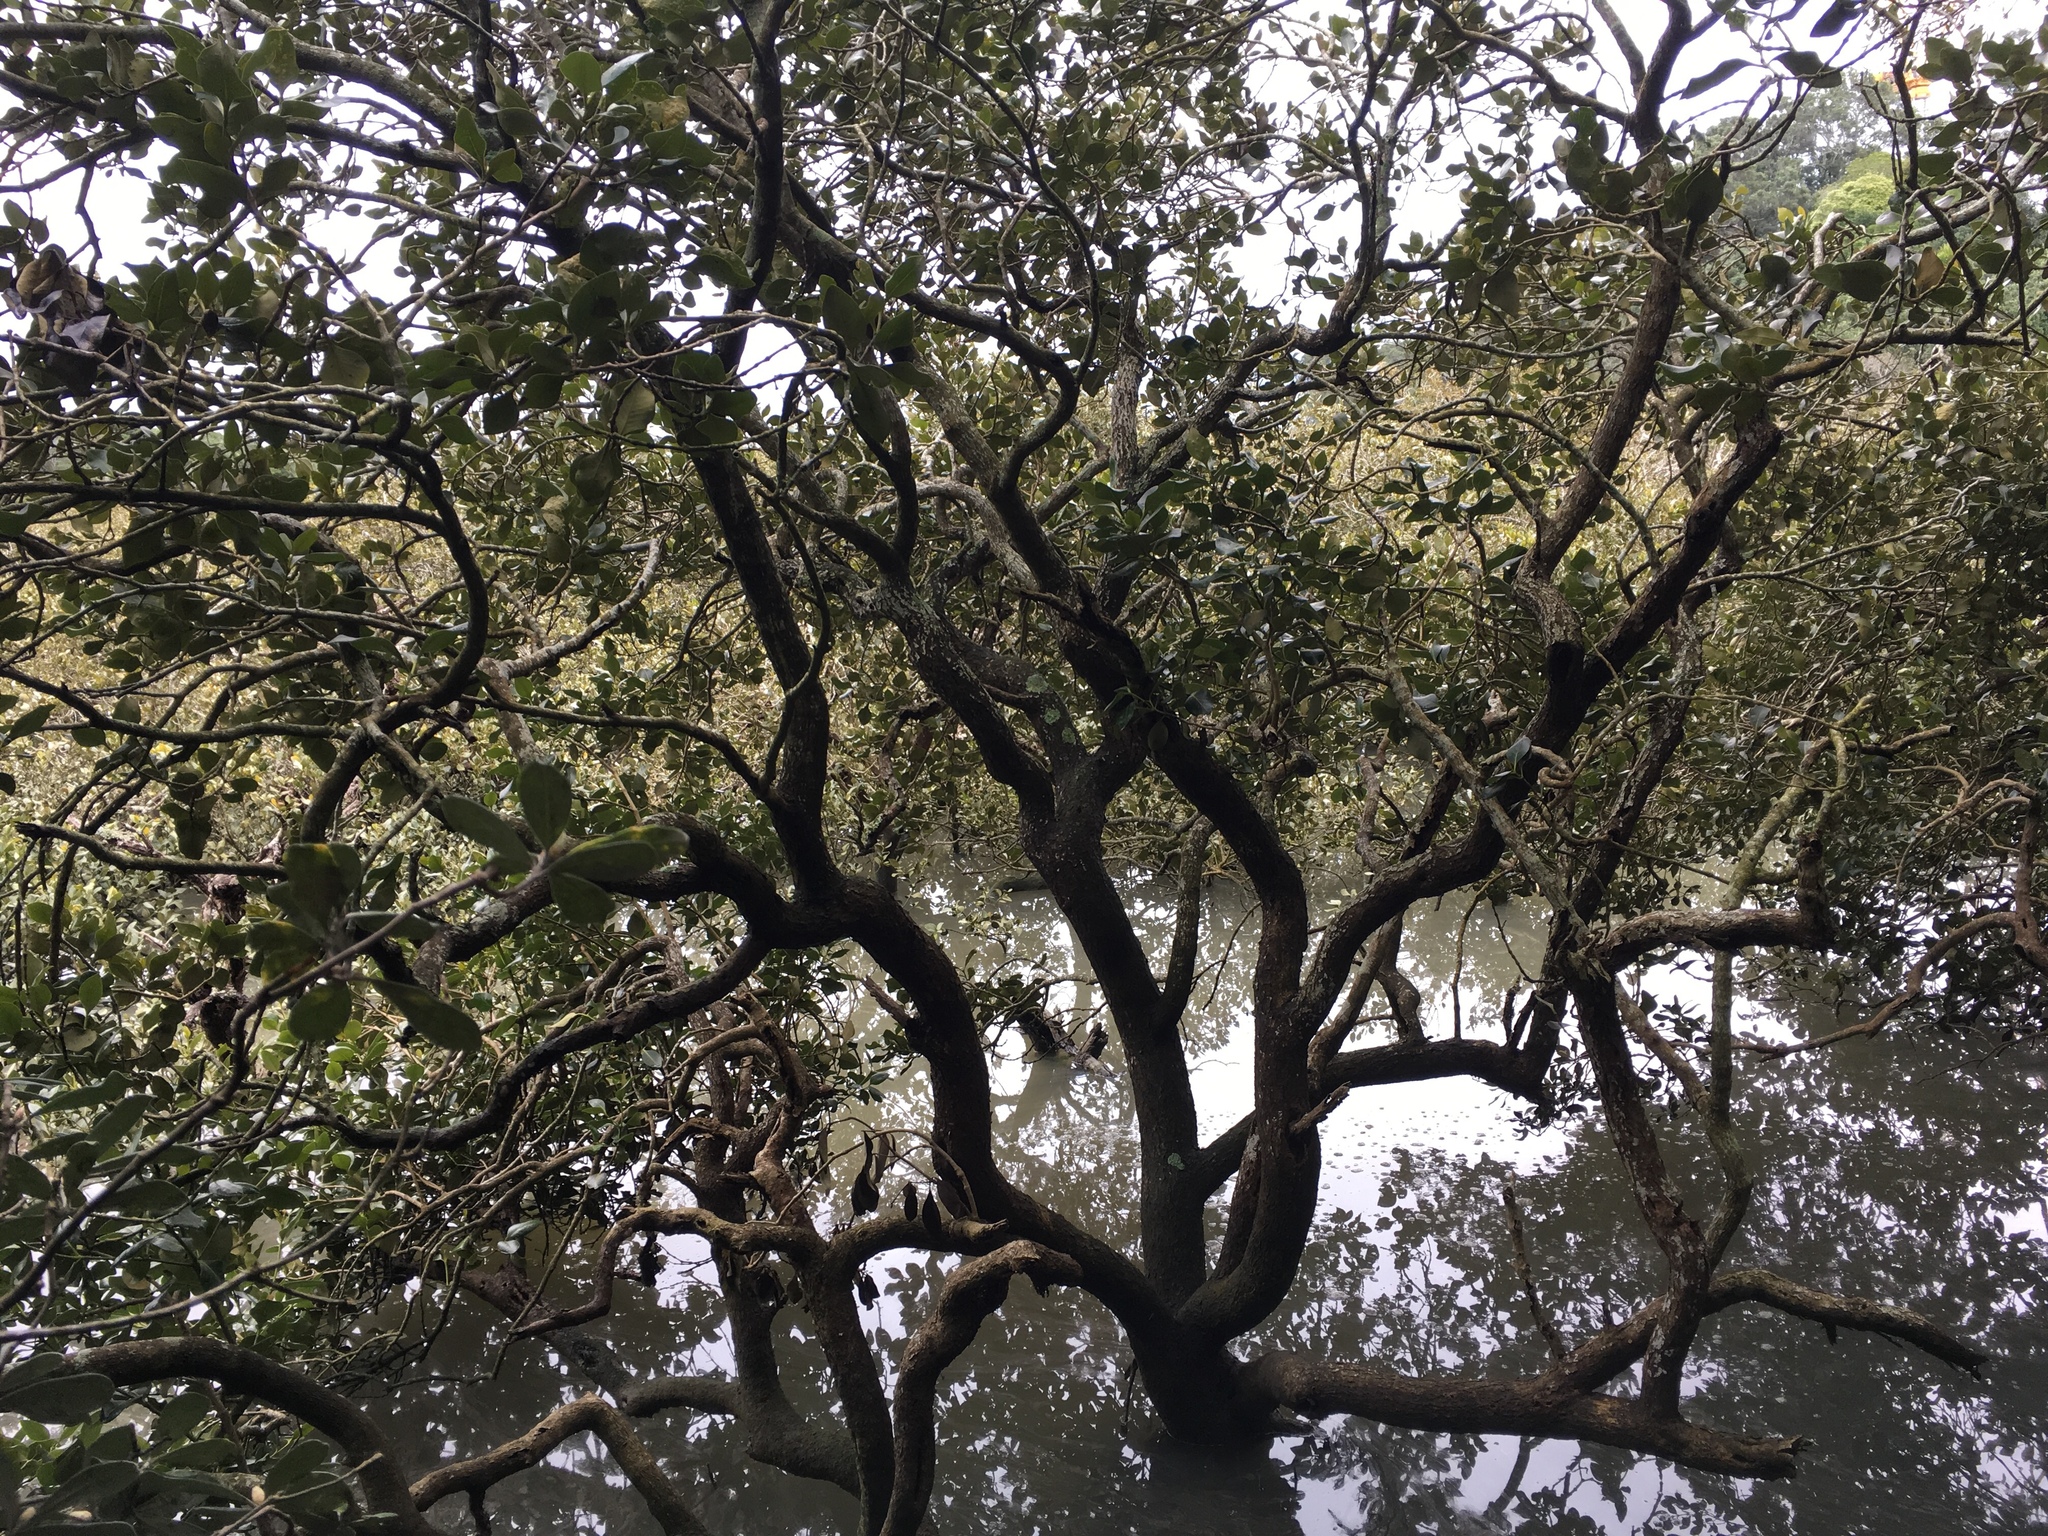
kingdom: Plantae
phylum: Tracheophyta
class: Magnoliopsida
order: Lamiales
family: Acanthaceae
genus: Avicennia
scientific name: Avicennia marina
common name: Gray mangrove
